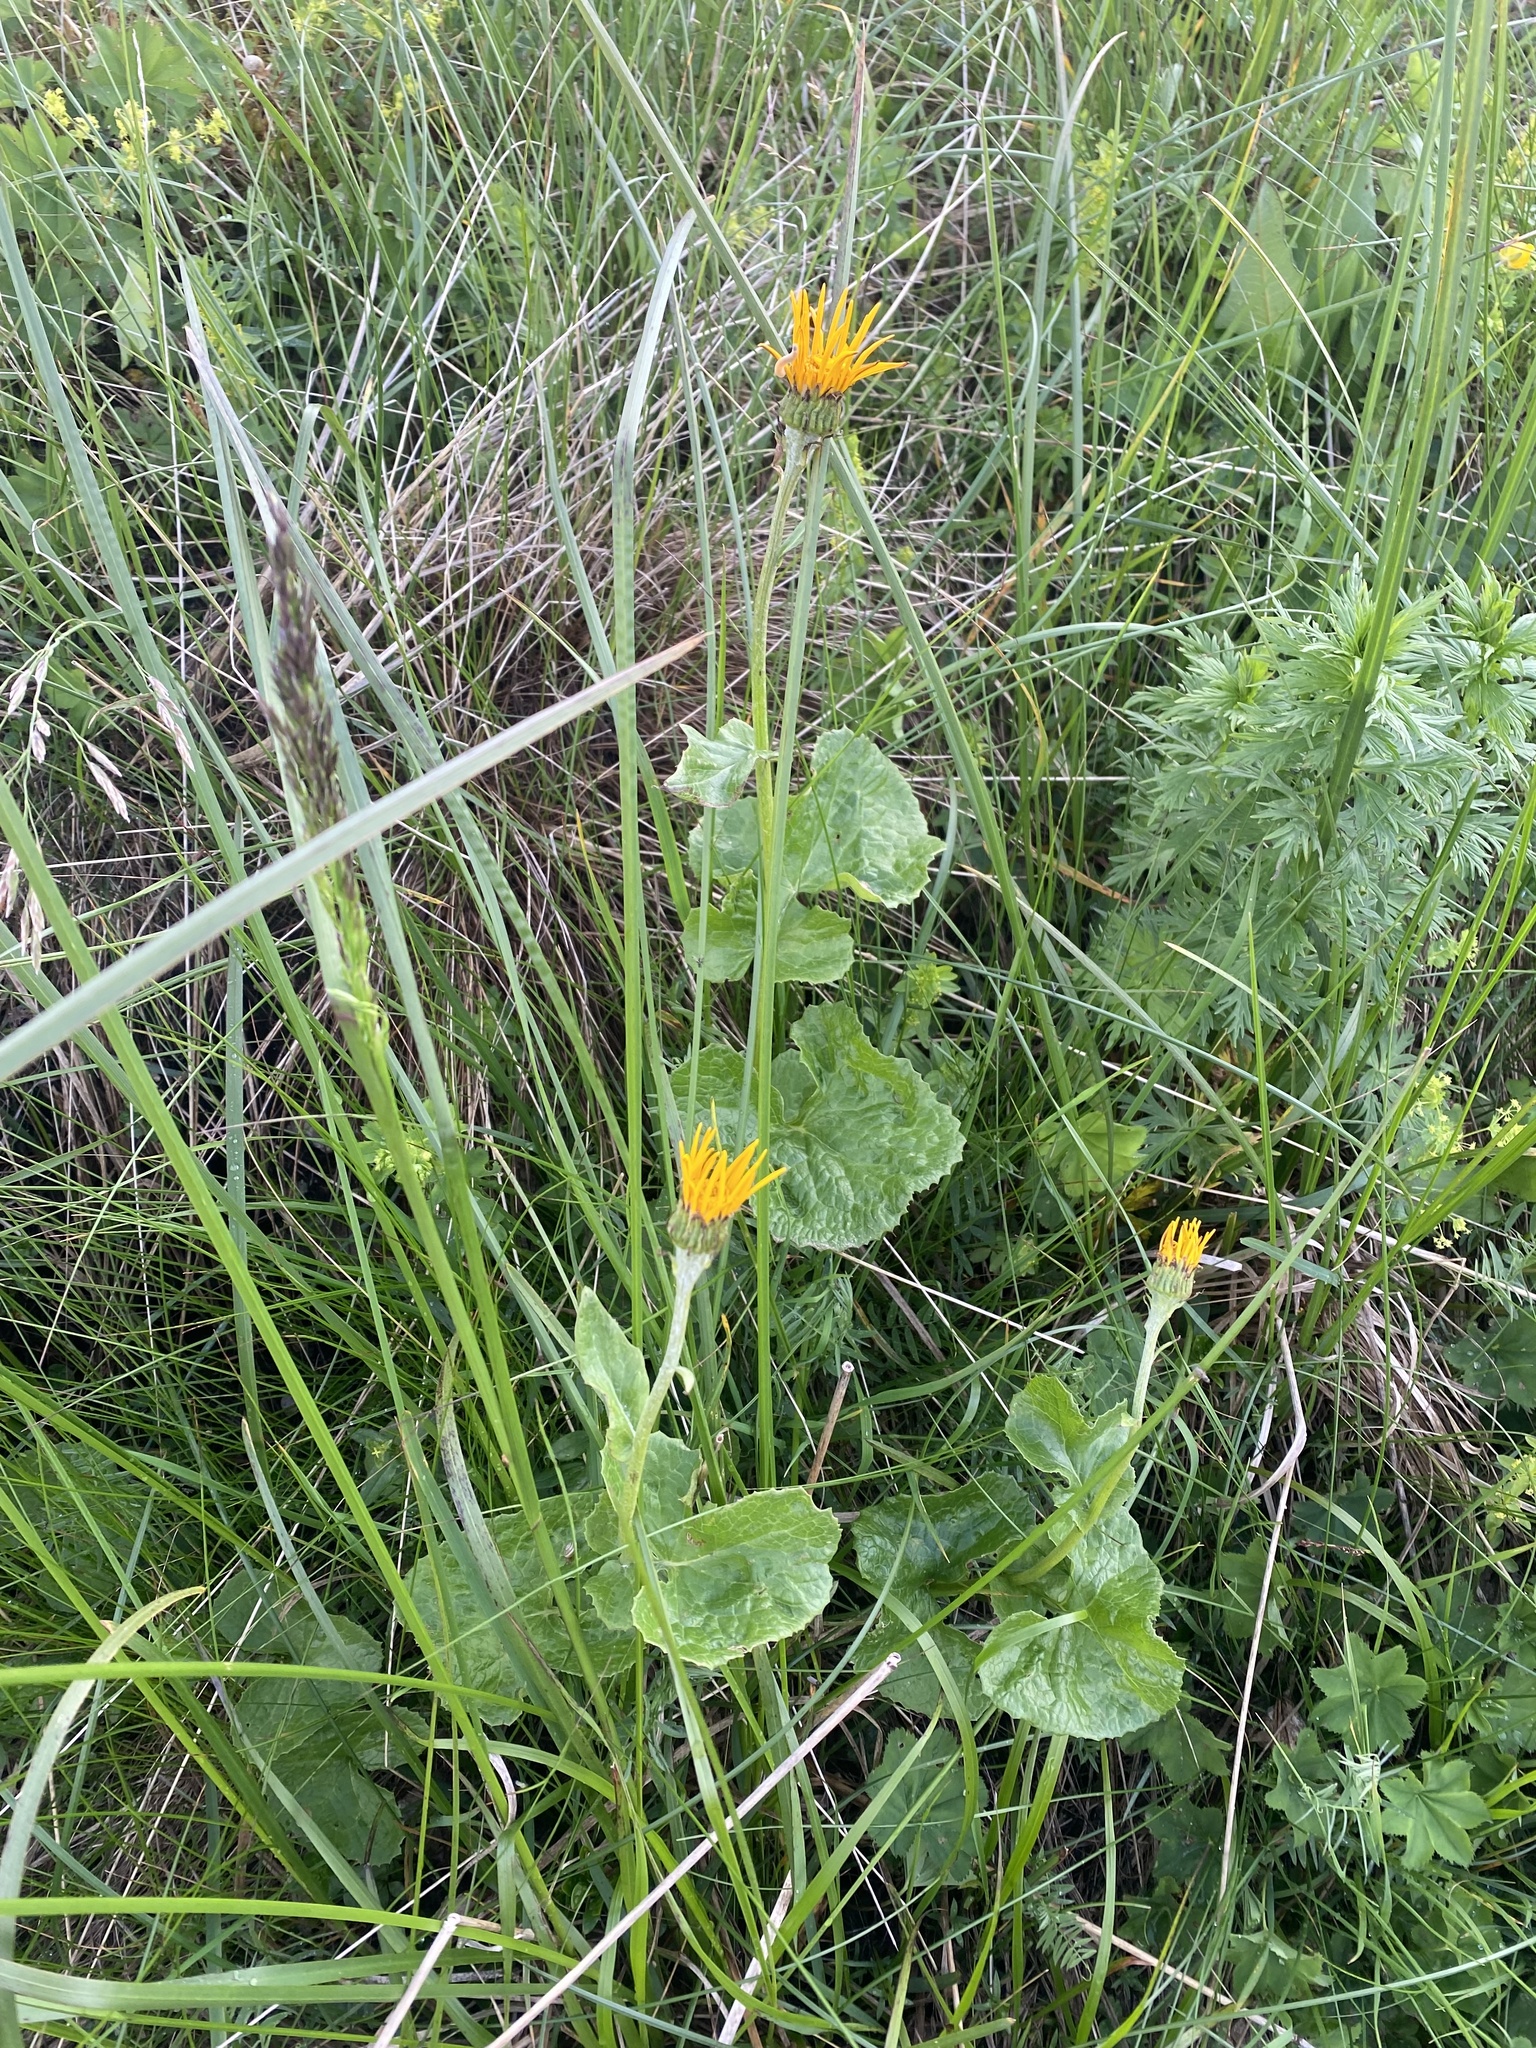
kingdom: Plantae
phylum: Tracheophyta
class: Magnoliopsida
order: Asterales
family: Asteraceae
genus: Dolichorrhiza
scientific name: Dolichorrhiza caucasica
